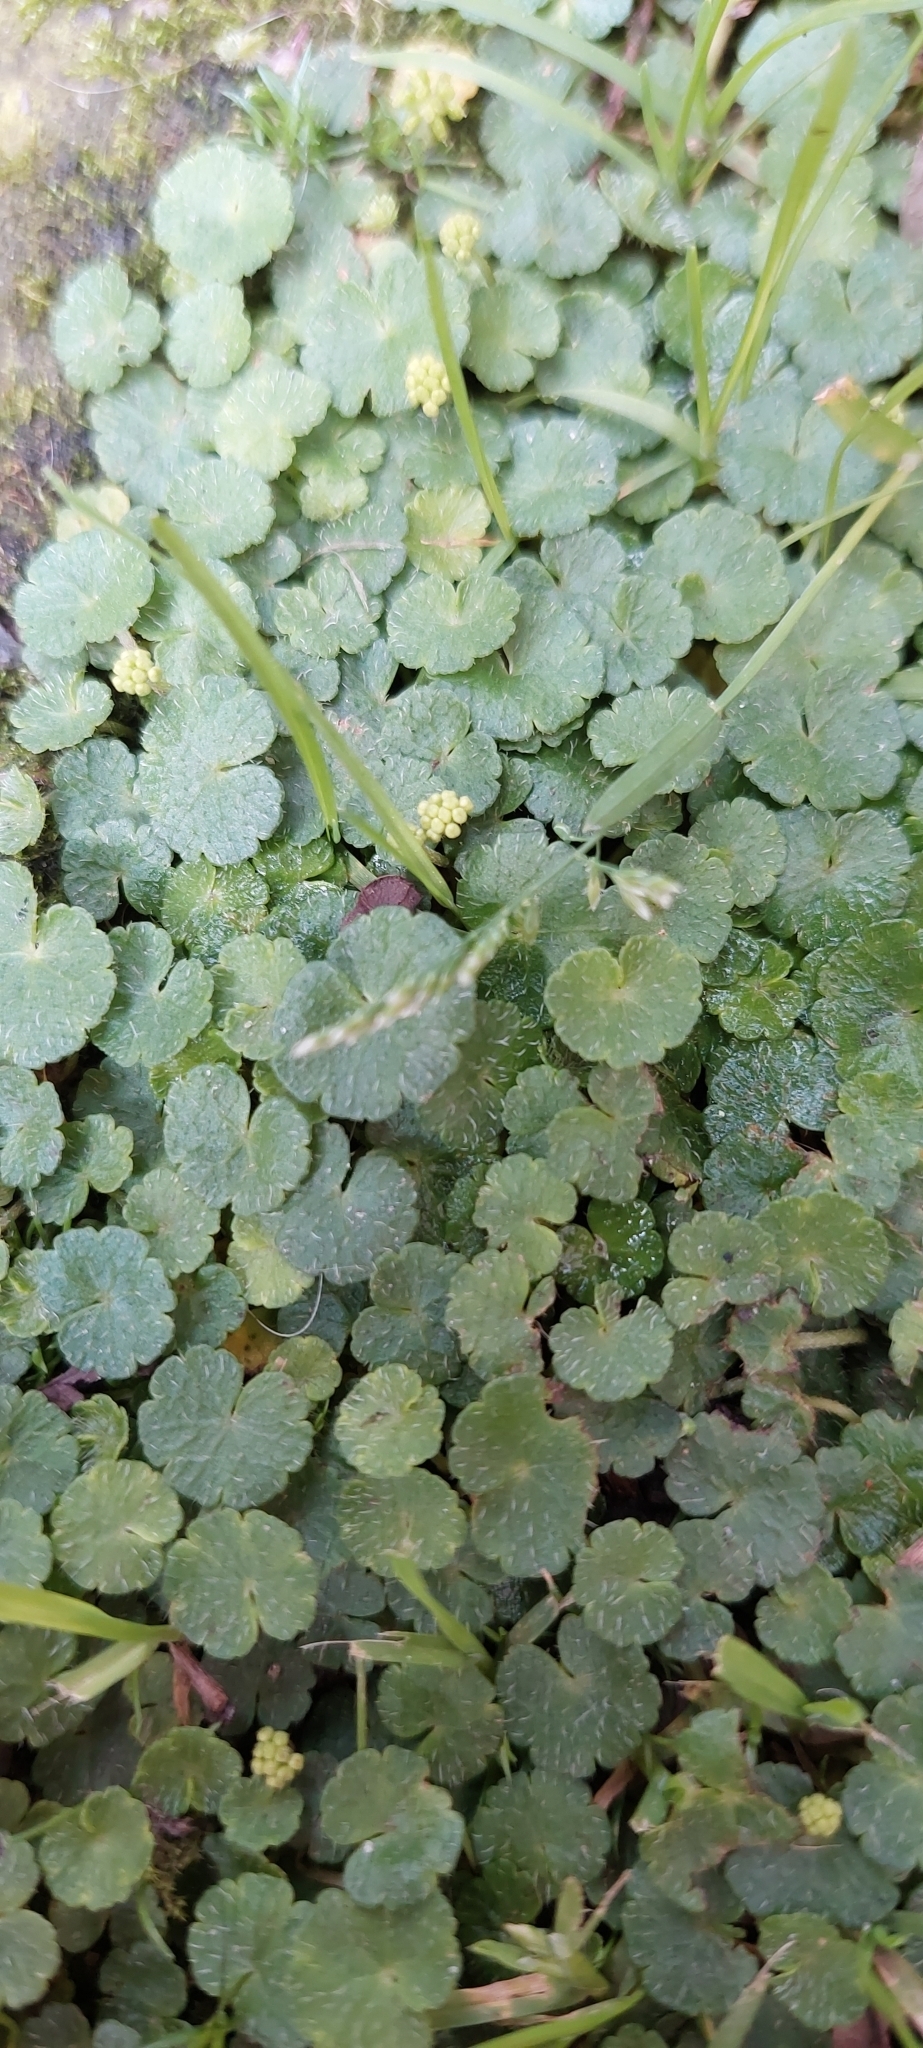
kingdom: Plantae
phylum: Tracheophyta
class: Magnoliopsida
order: Apiales
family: Araliaceae
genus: Hydrocotyle
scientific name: Hydrocotyle bonplandii
